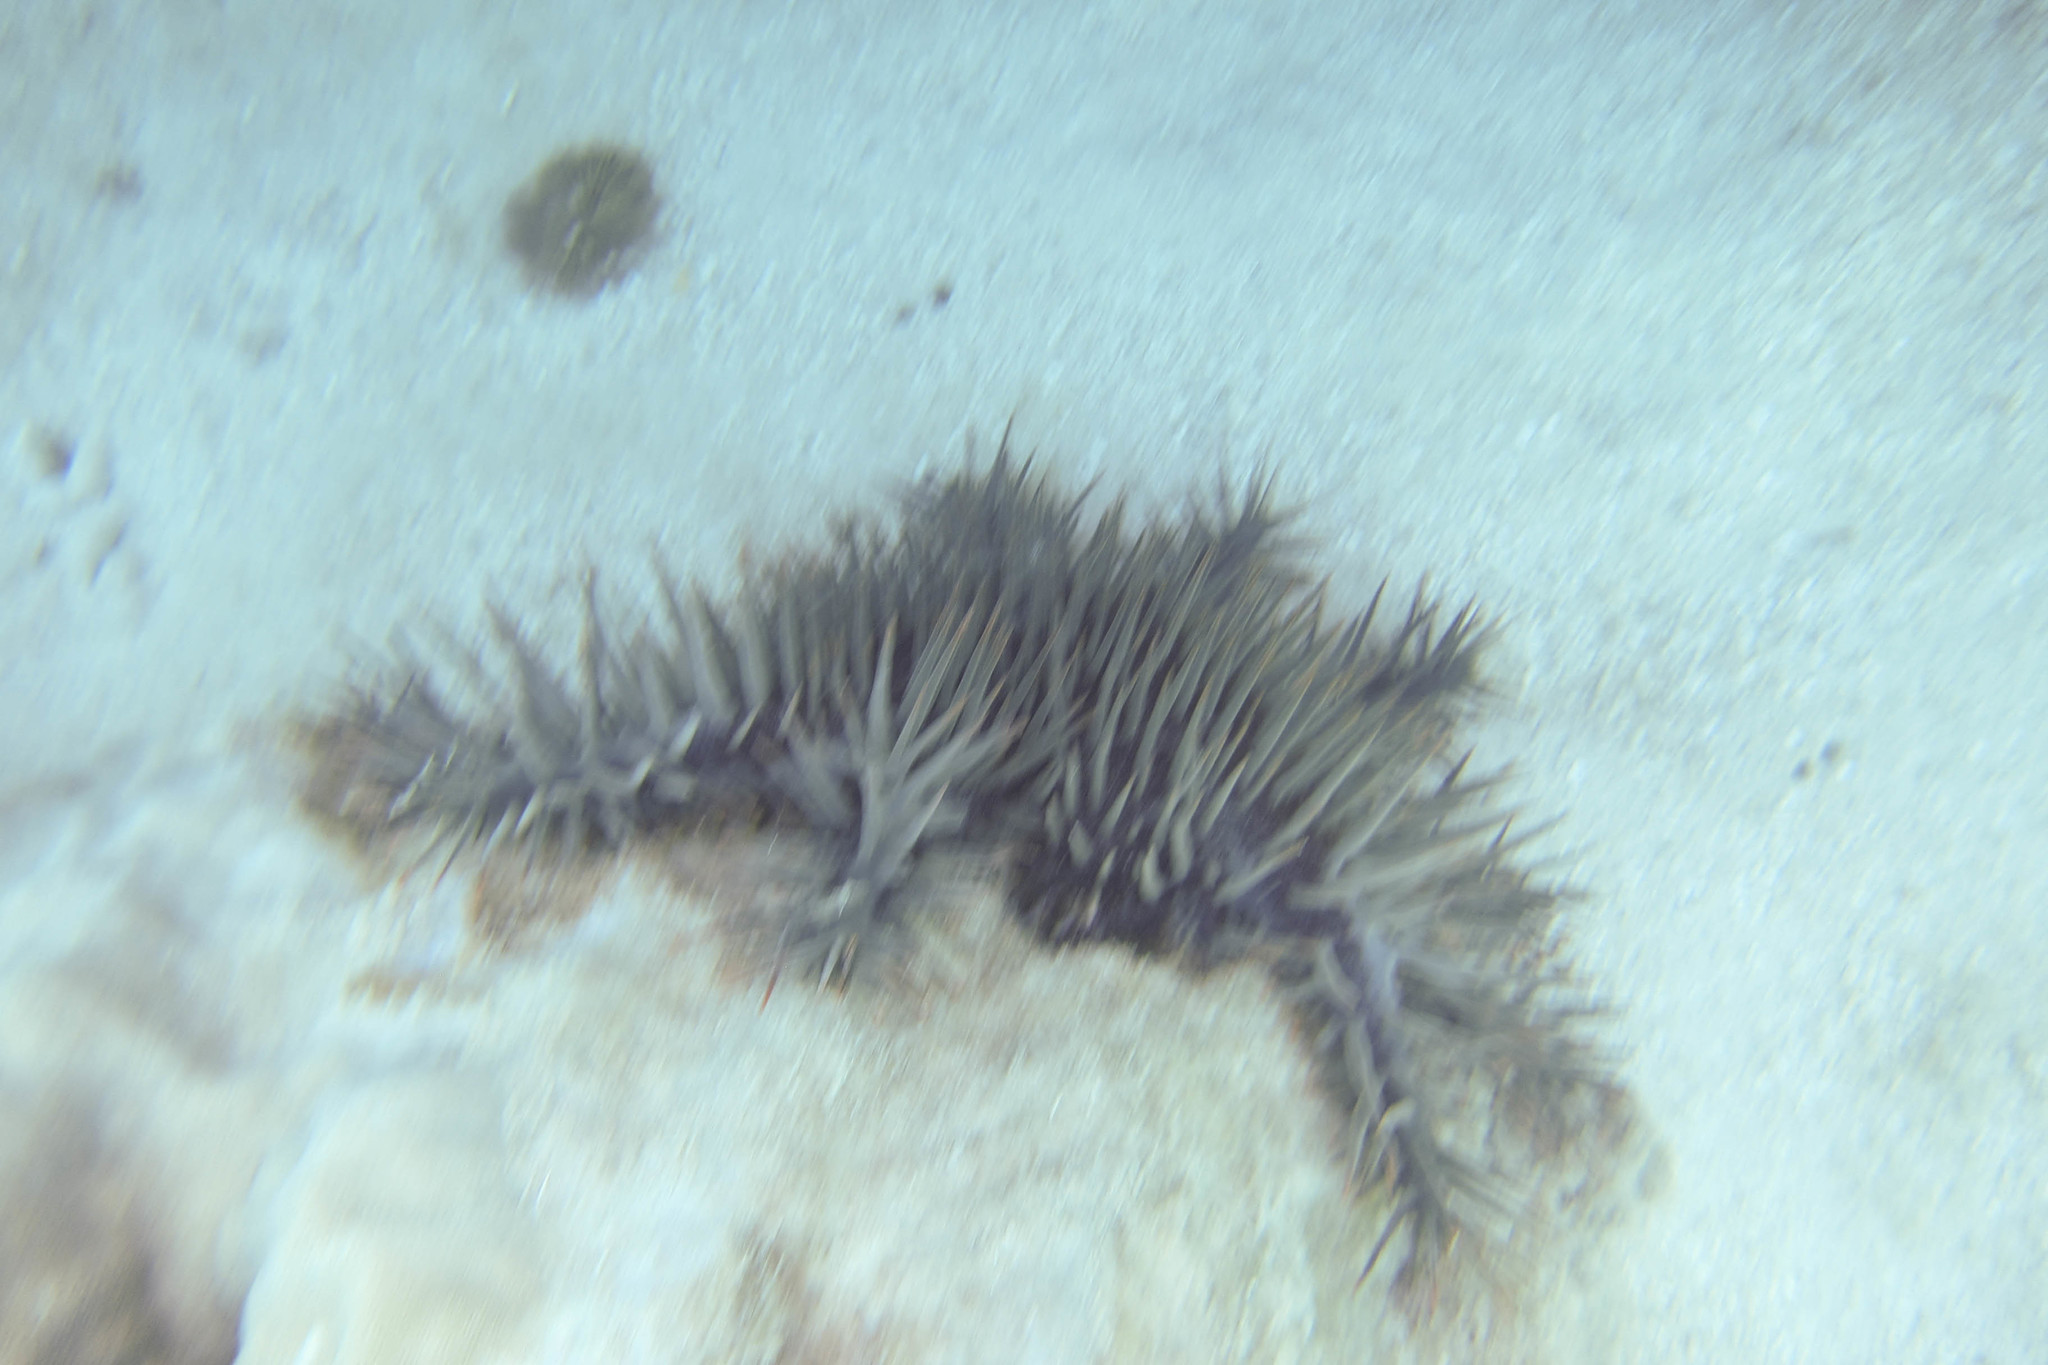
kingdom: Animalia
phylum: Echinodermata
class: Asteroidea
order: Valvatida
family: Acanthasteridae
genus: Acanthaster
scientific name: Acanthaster planci
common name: Crown-of-thorns
